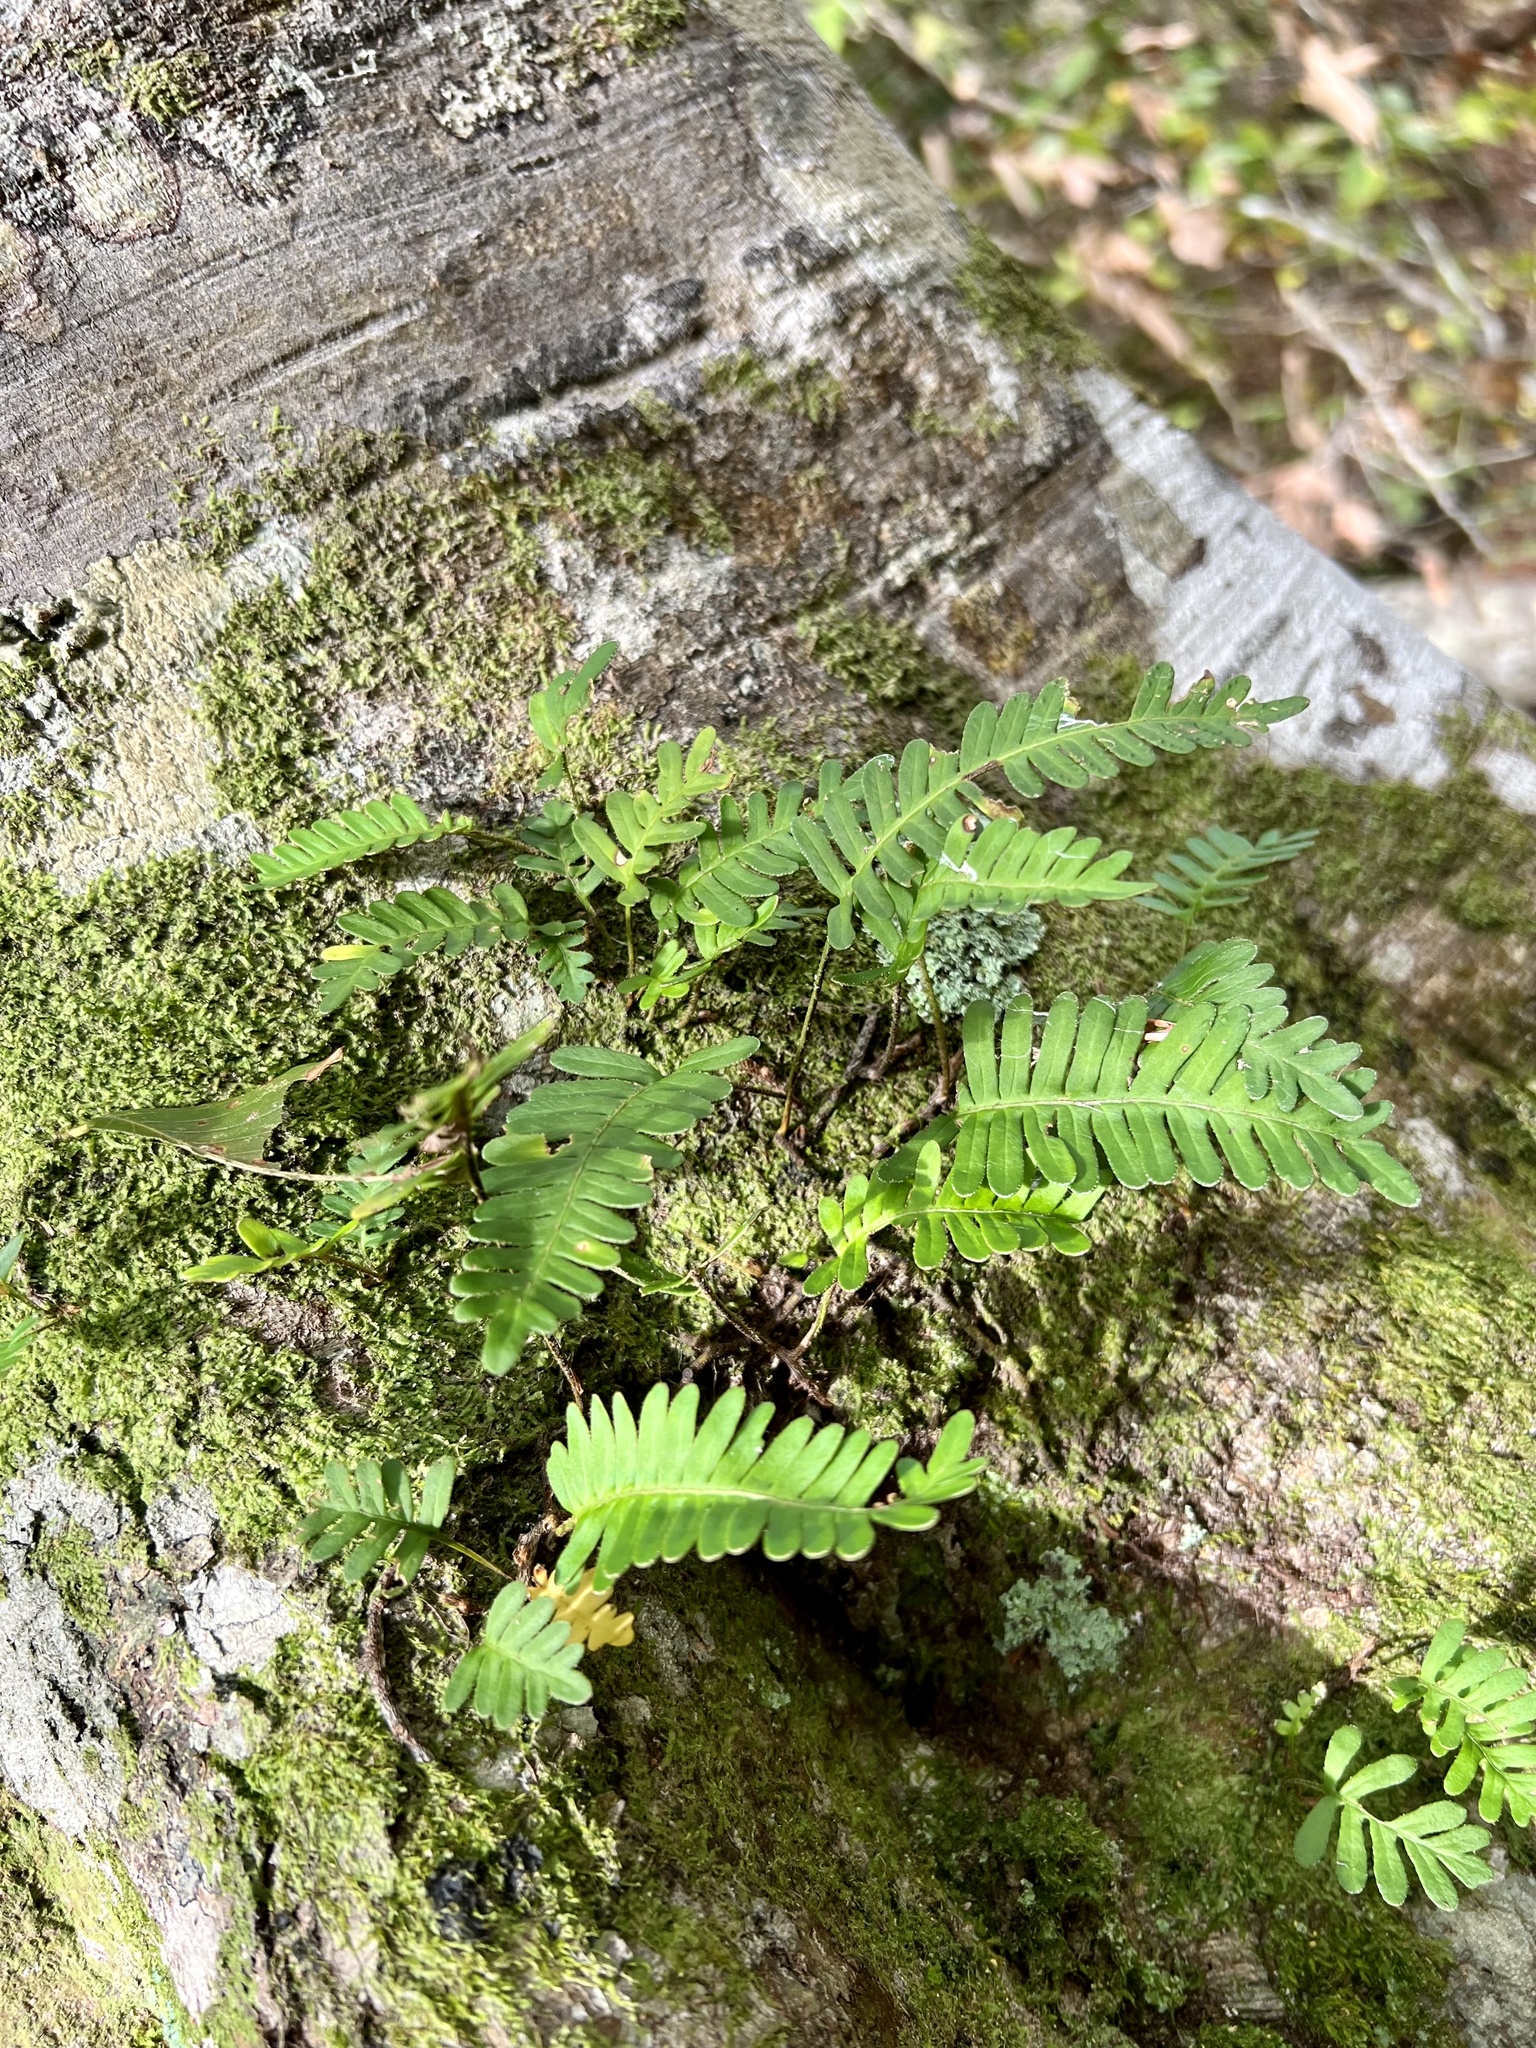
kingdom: Plantae
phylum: Tracheophyta
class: Polypodiopsida
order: Polypodiales
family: Polypodiaceae
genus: Pleopeltis
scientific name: Pleopeltis michauxiana
